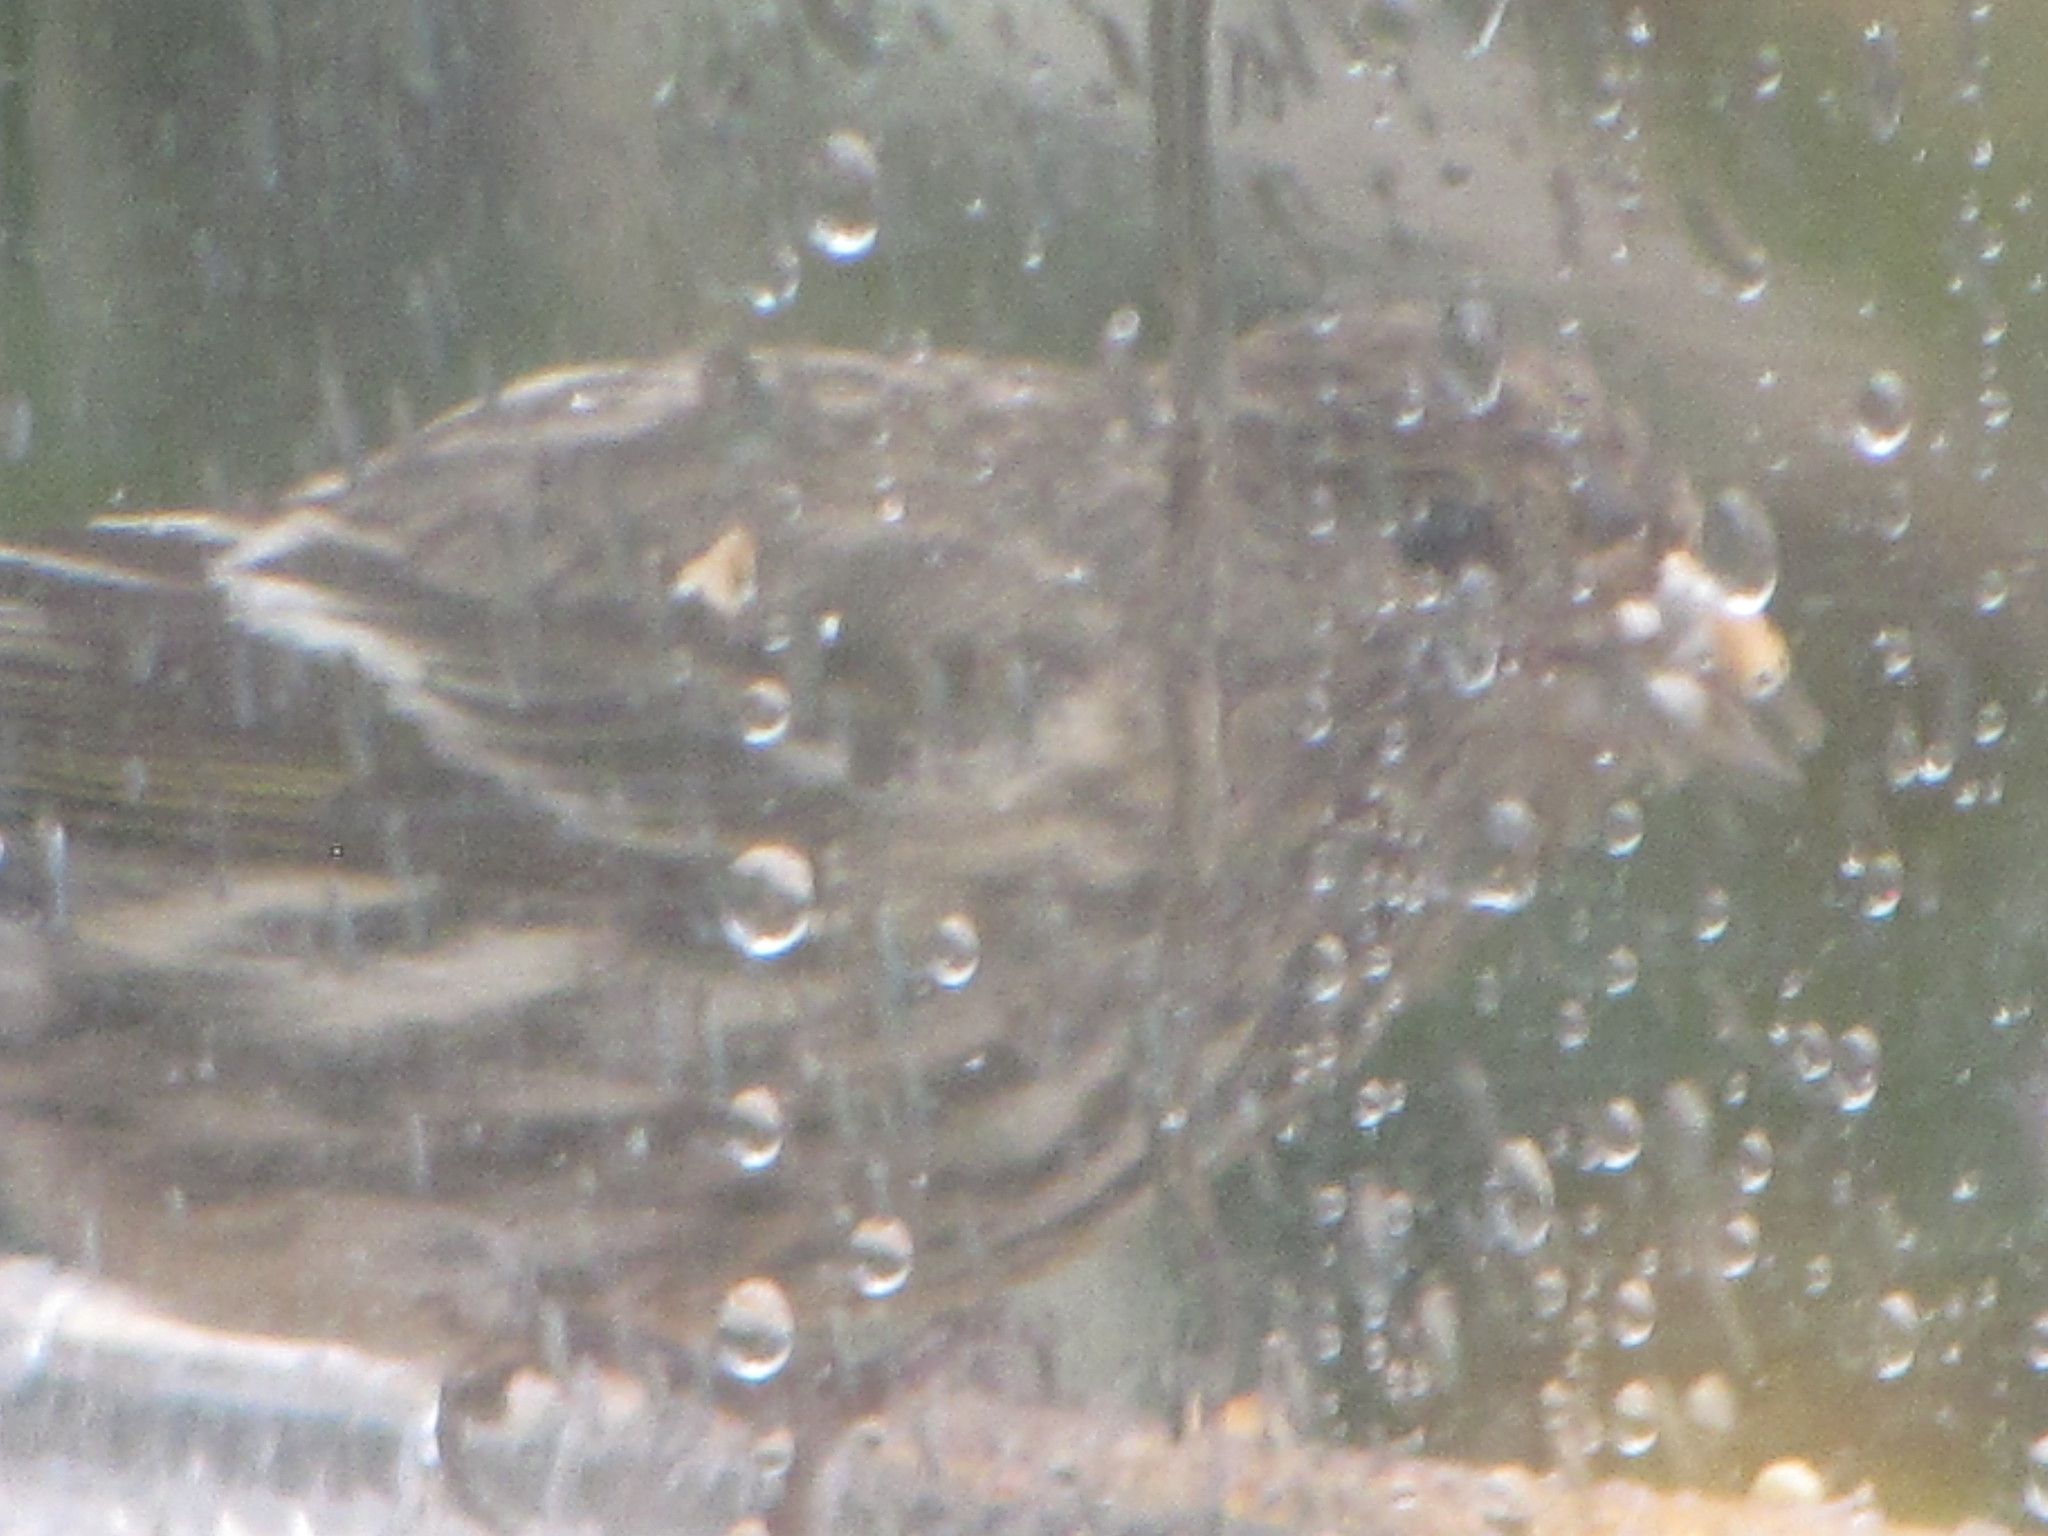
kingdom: Animalia
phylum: Chordata
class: Aves
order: Passeriformes
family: Fringillidae
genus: Spinus
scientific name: Spinus pinus
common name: Pine siskin
